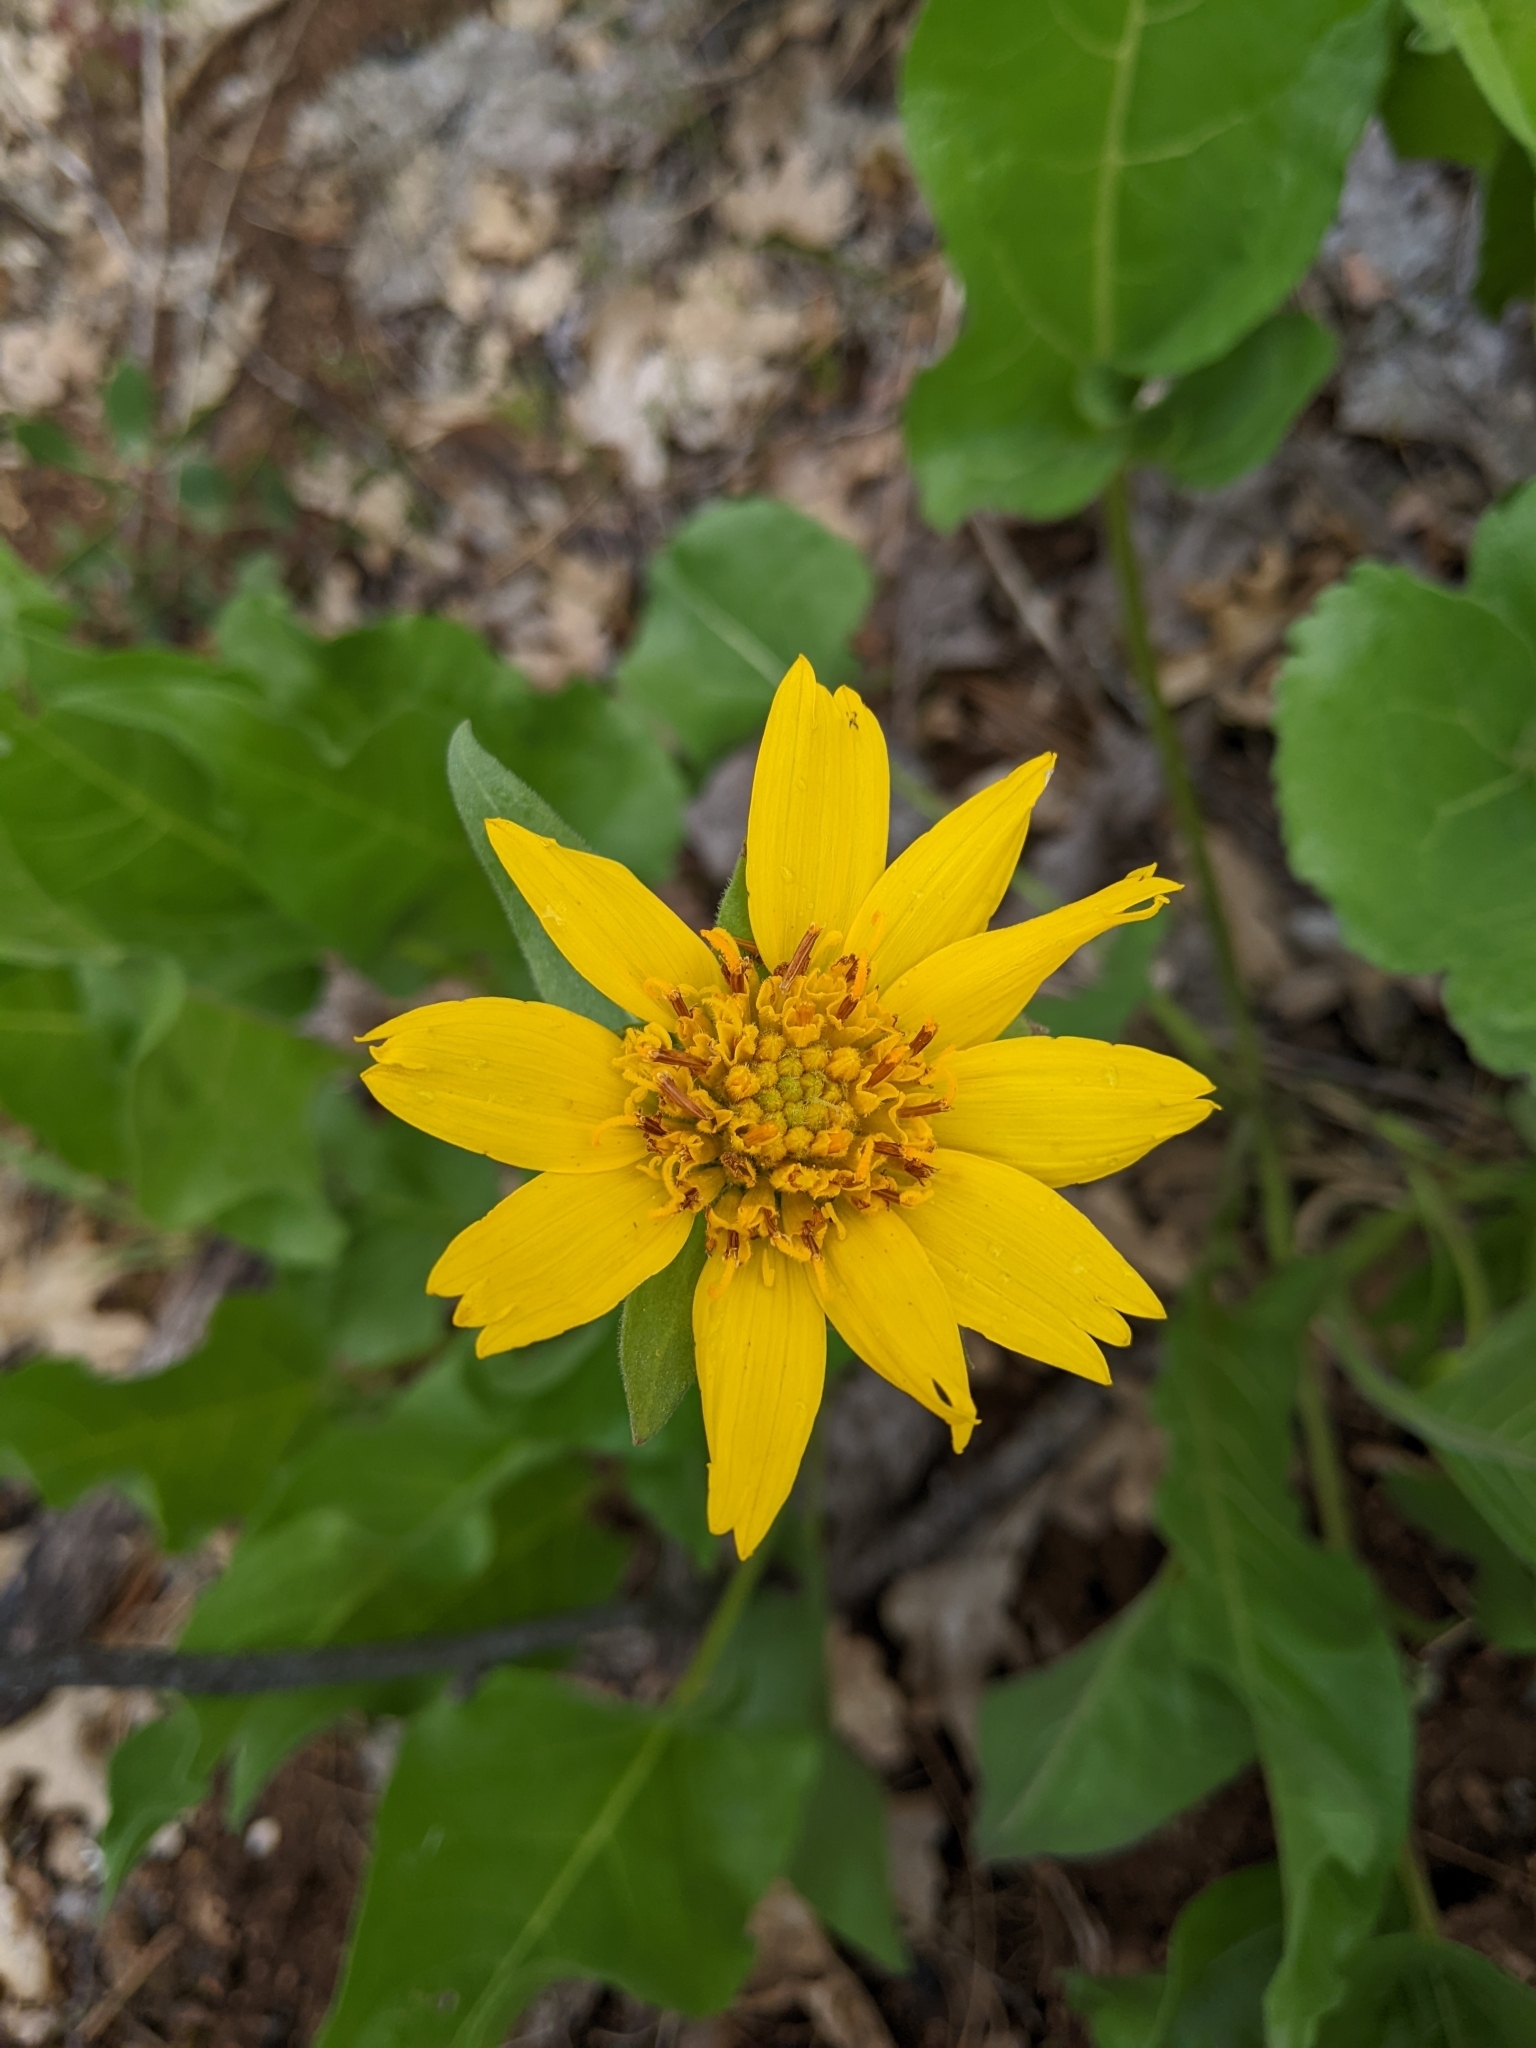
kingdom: Plantae
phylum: Tracheophyta
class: Magnoliopsida
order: Asterales
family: Asteraceae
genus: Balsamorhiza
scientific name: Balsamorhiza deltoidea
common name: Deltoid balsamroot
